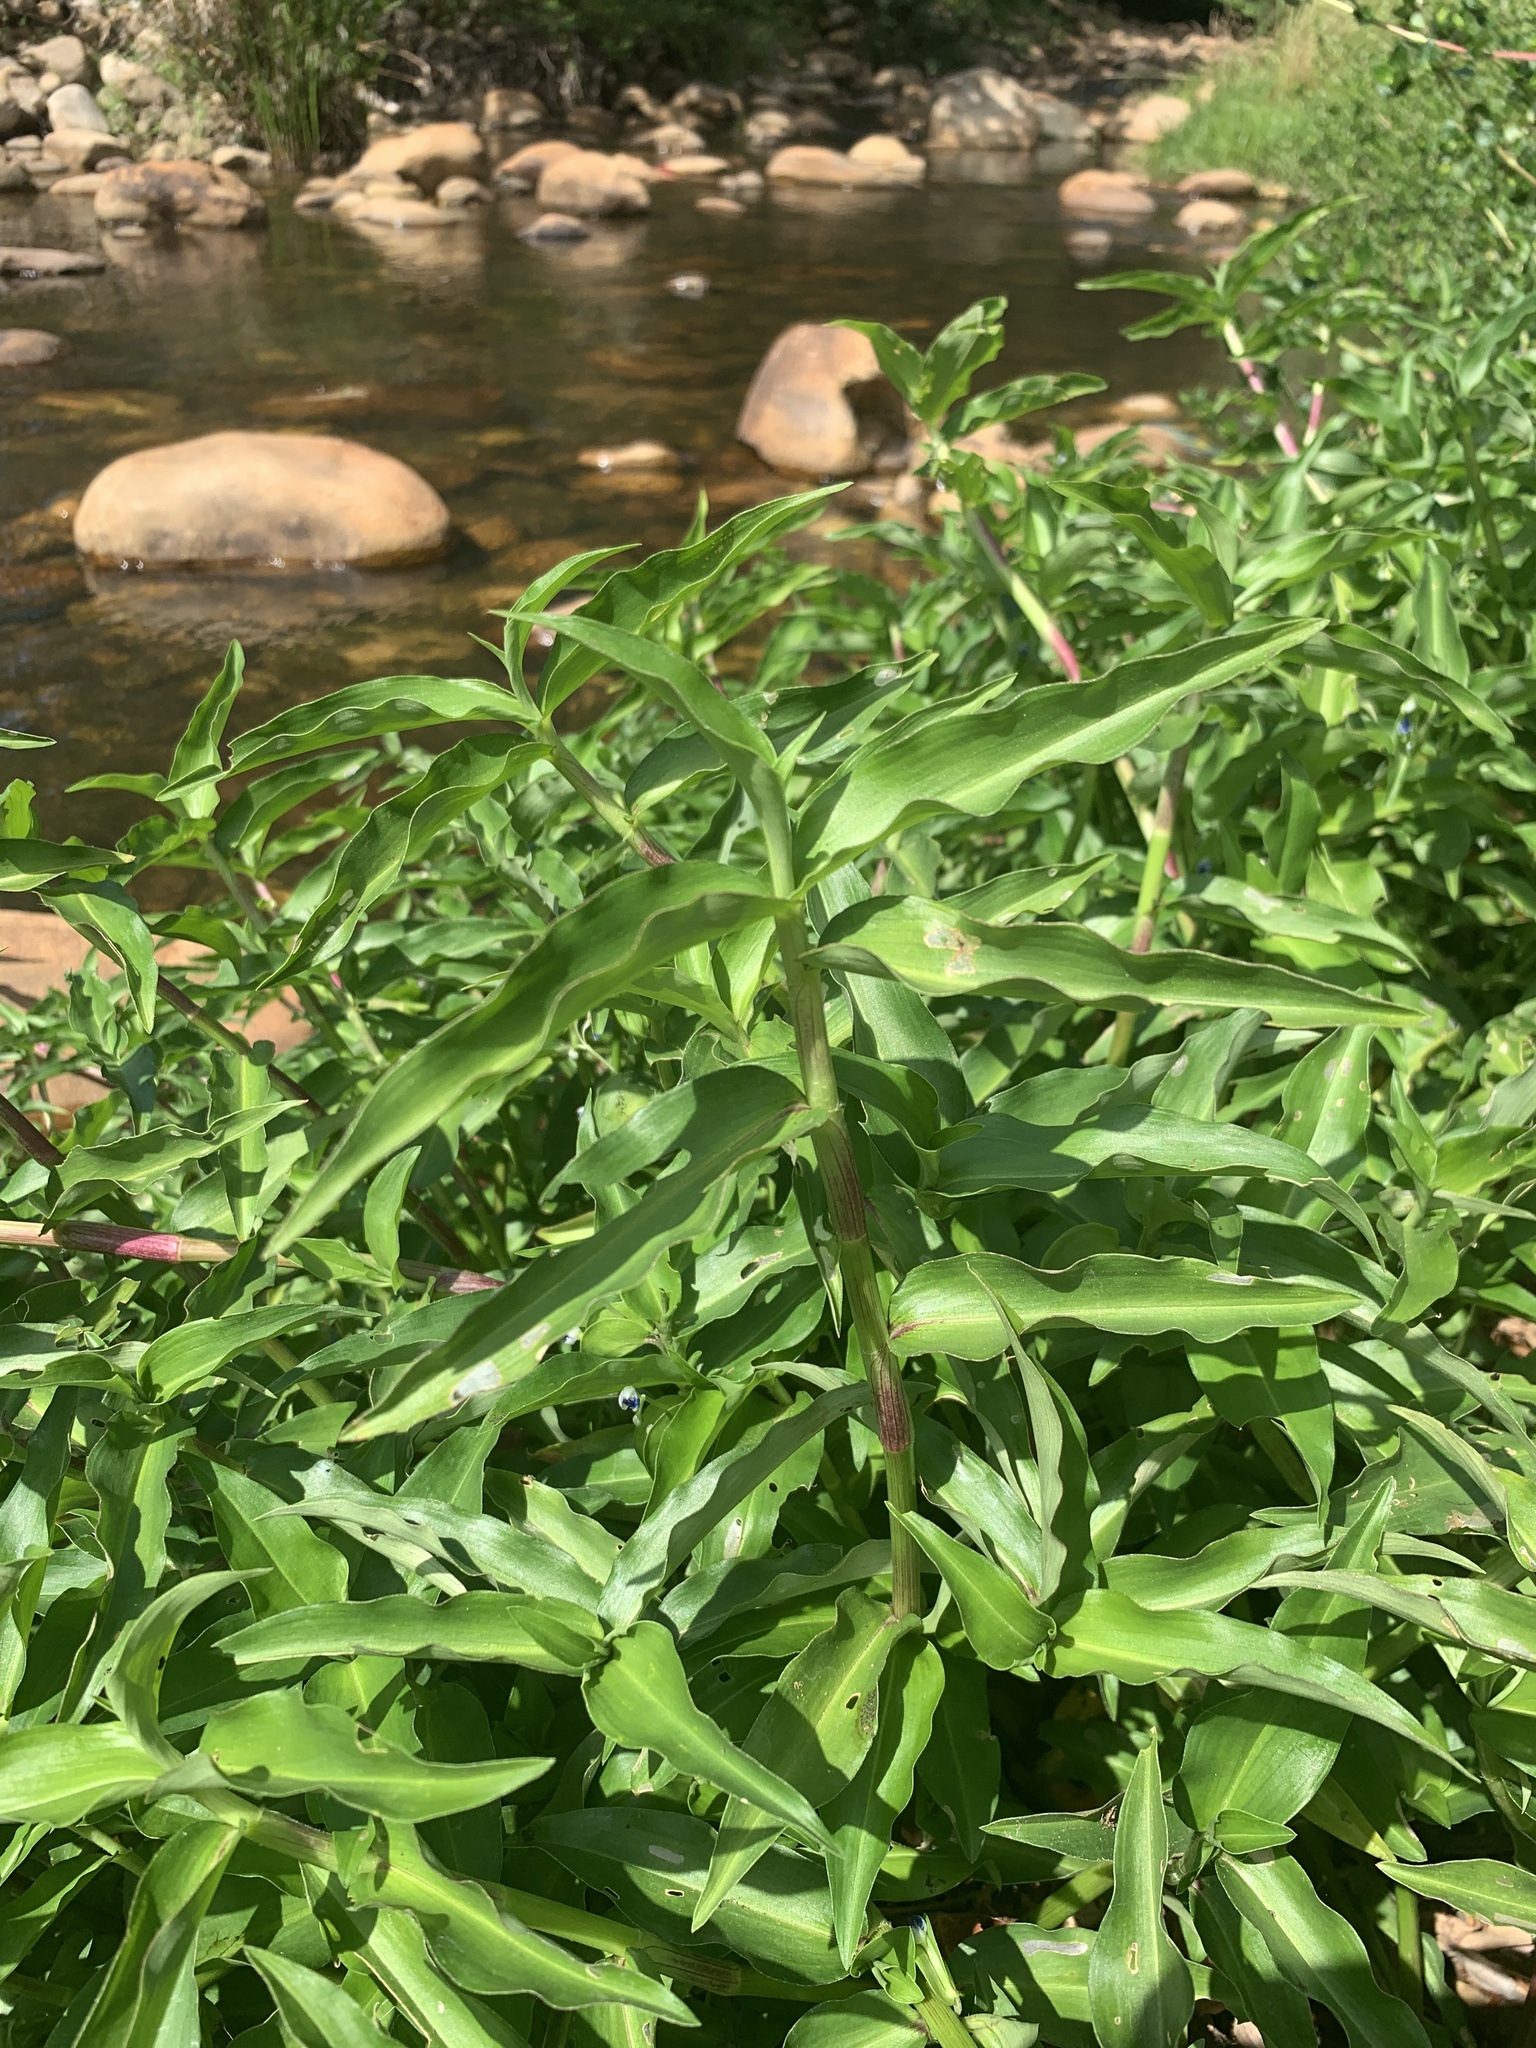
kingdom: Plantae
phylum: Tracheophyta
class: Liliopsida
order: Commelinales
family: Commelinaceae
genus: Commelina
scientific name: Commelina diffusa
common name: Climbing dayflower
